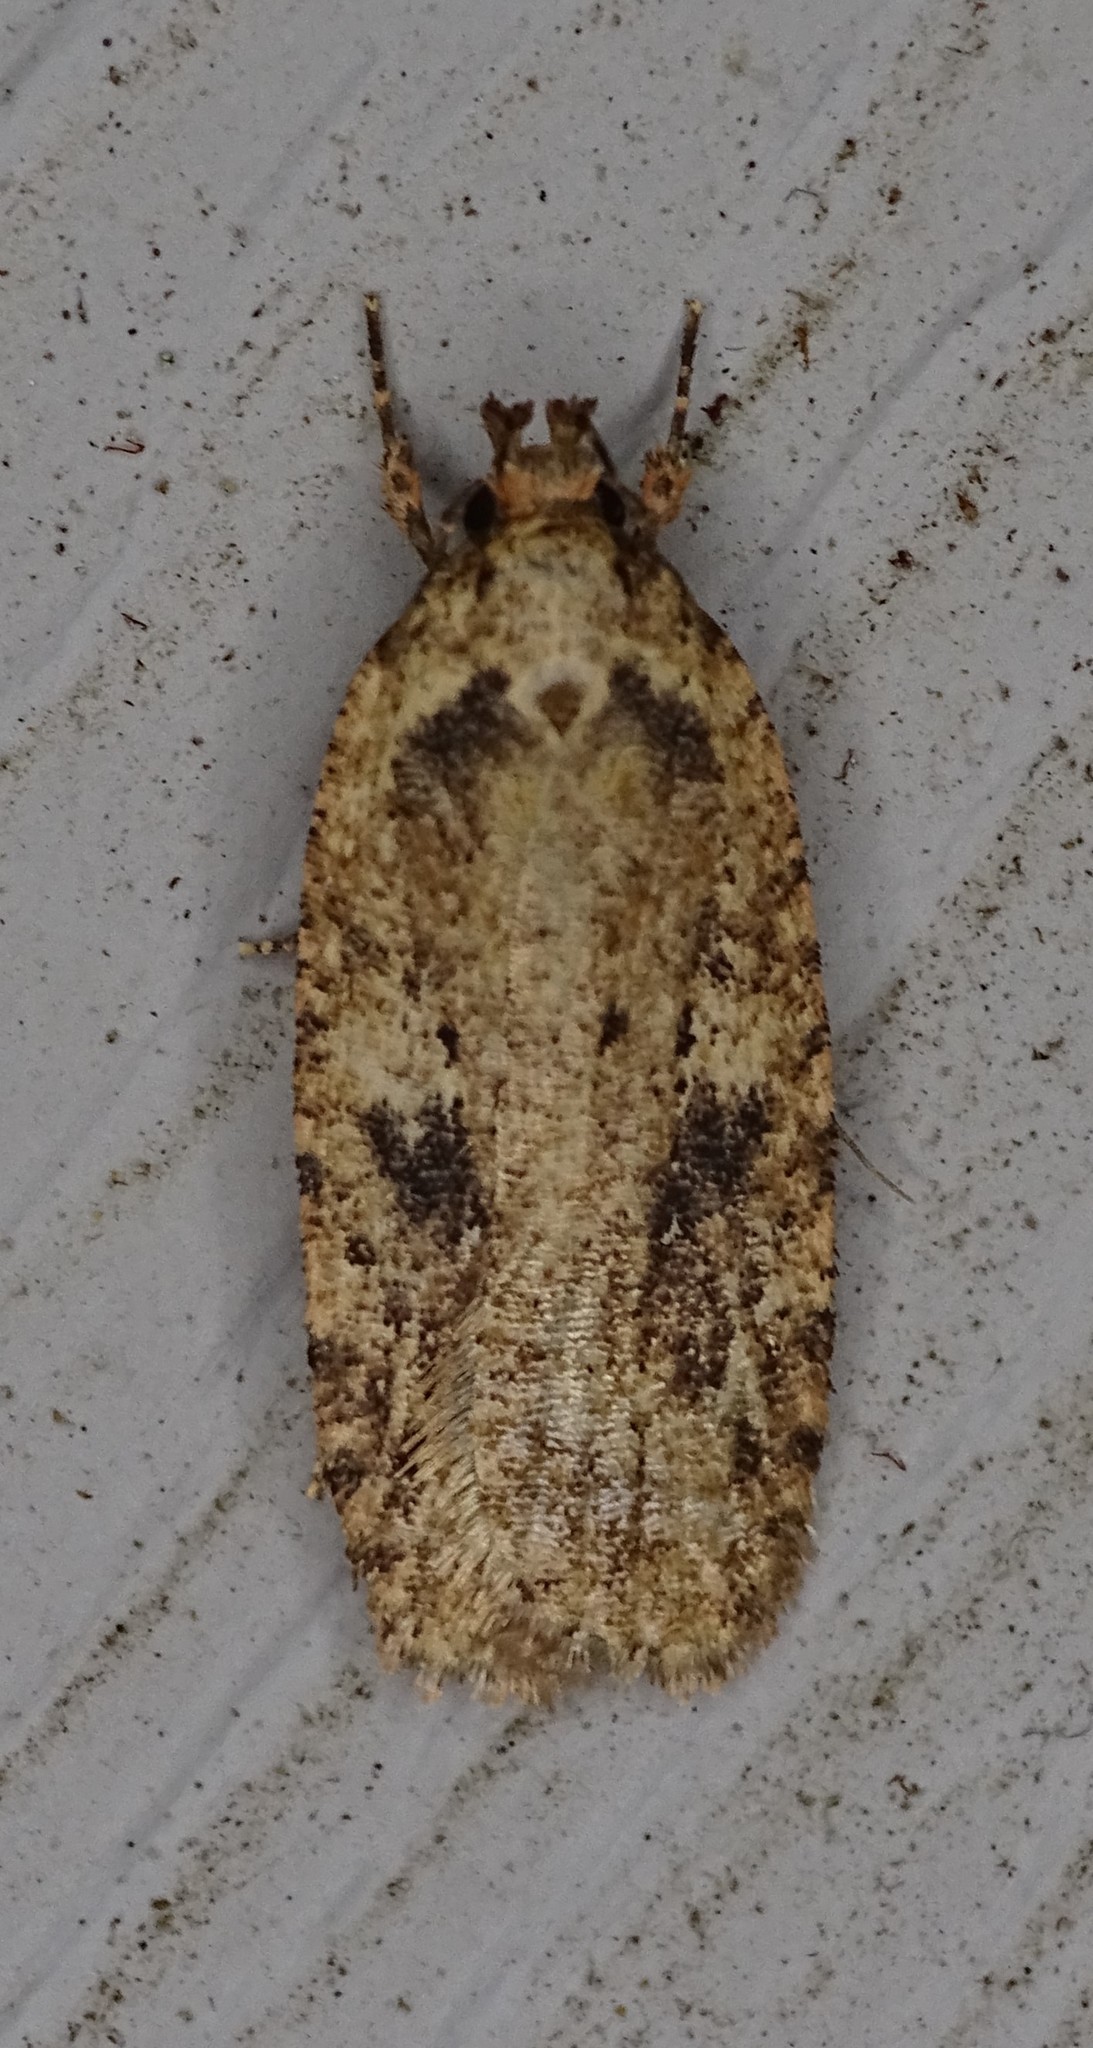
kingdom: Animalia
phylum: Arthropoda
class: Insecta
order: Lepidoptera
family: Depressariidae
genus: Agonopterix
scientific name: Agonopterix pulvipennella
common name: Goldenrod leafffolder
